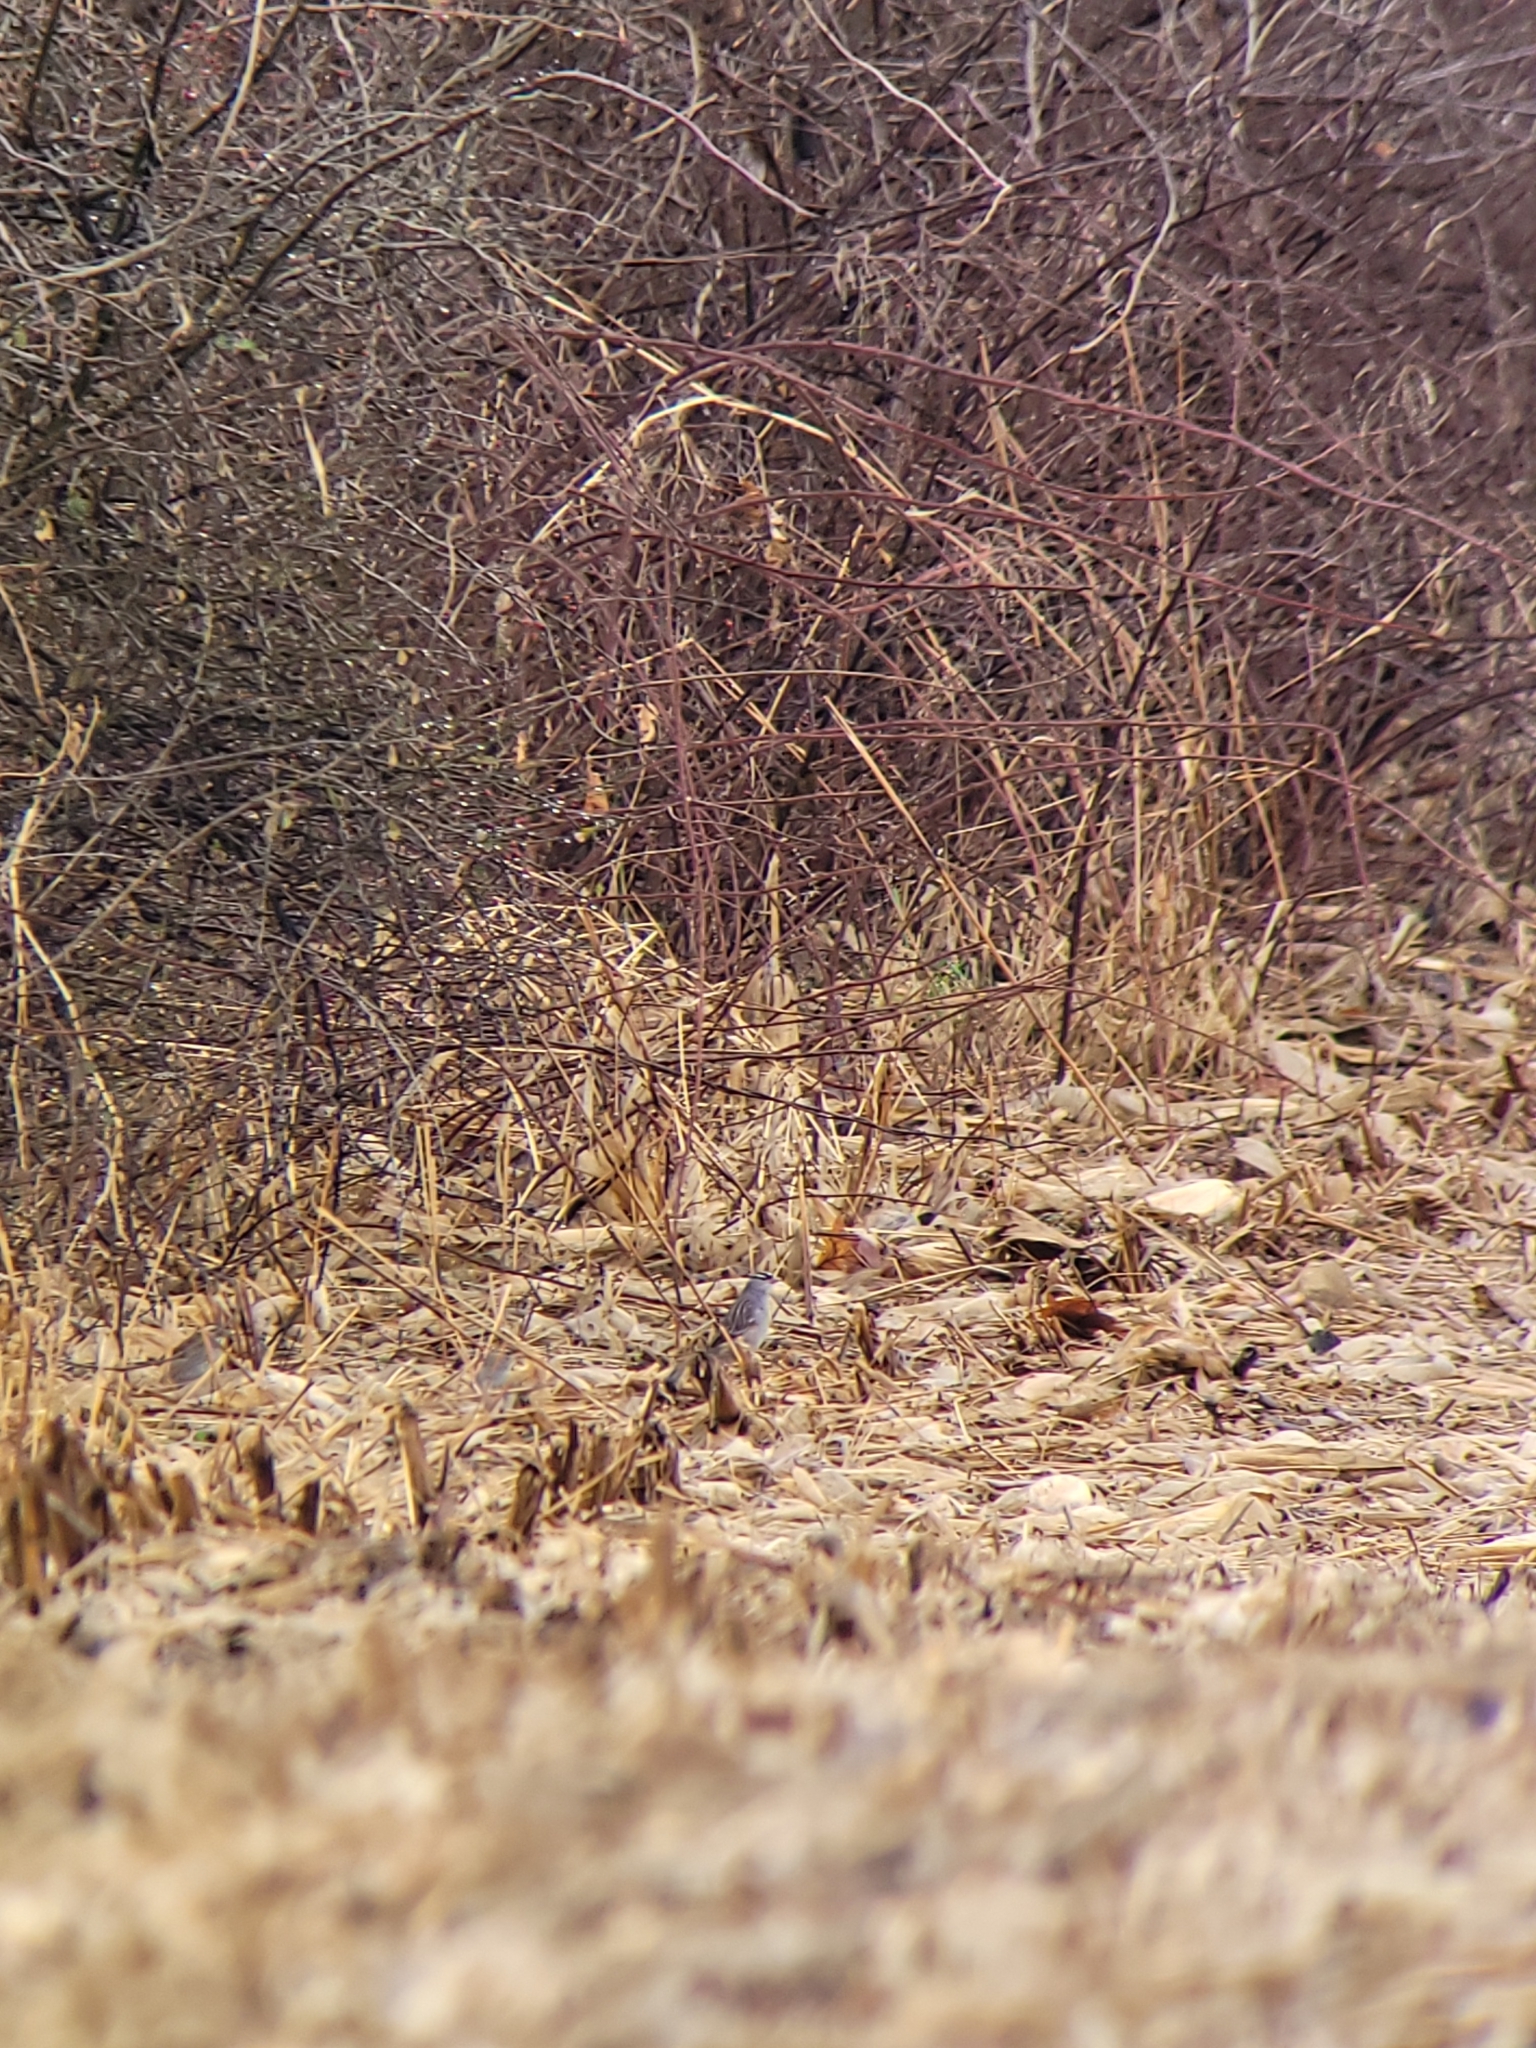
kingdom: Animalia
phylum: Chordata
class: Aves
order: Passeriformes
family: Passerellidae
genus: Zonotrichia
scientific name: Zonotrichia leucophrys
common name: White-crowned sparrow
